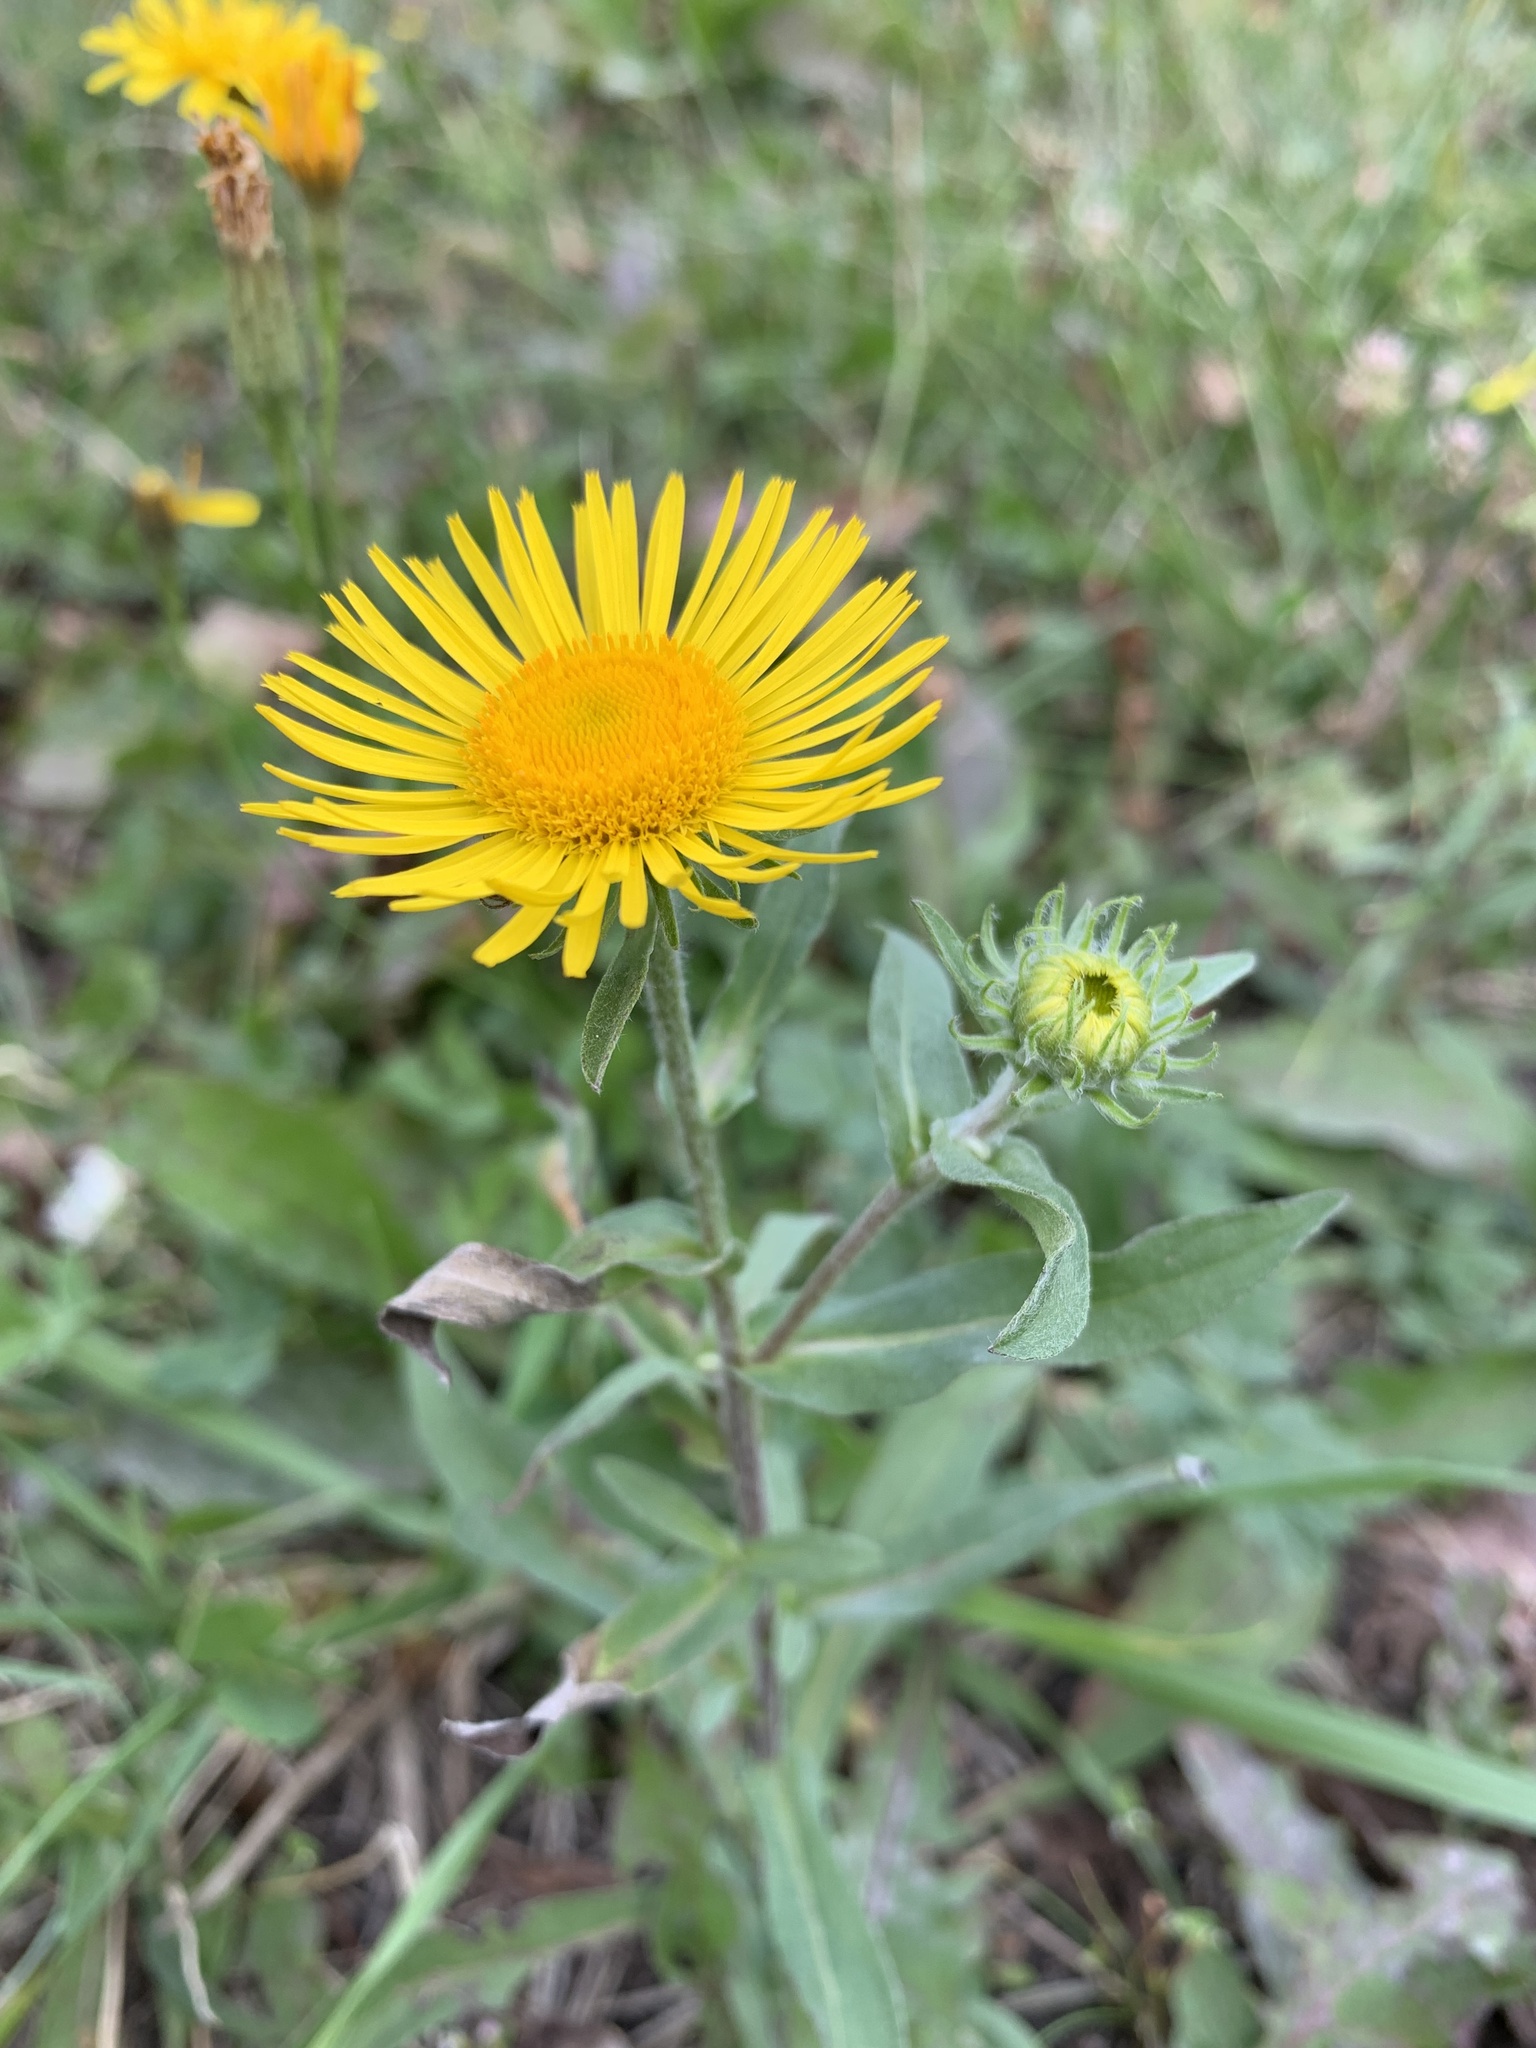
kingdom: Plantae
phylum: Tracheophyta
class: Magnoliopsida
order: Asterales
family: Asteraceae
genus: Pentanema
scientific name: Pentanema britannicum
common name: British elecampane
